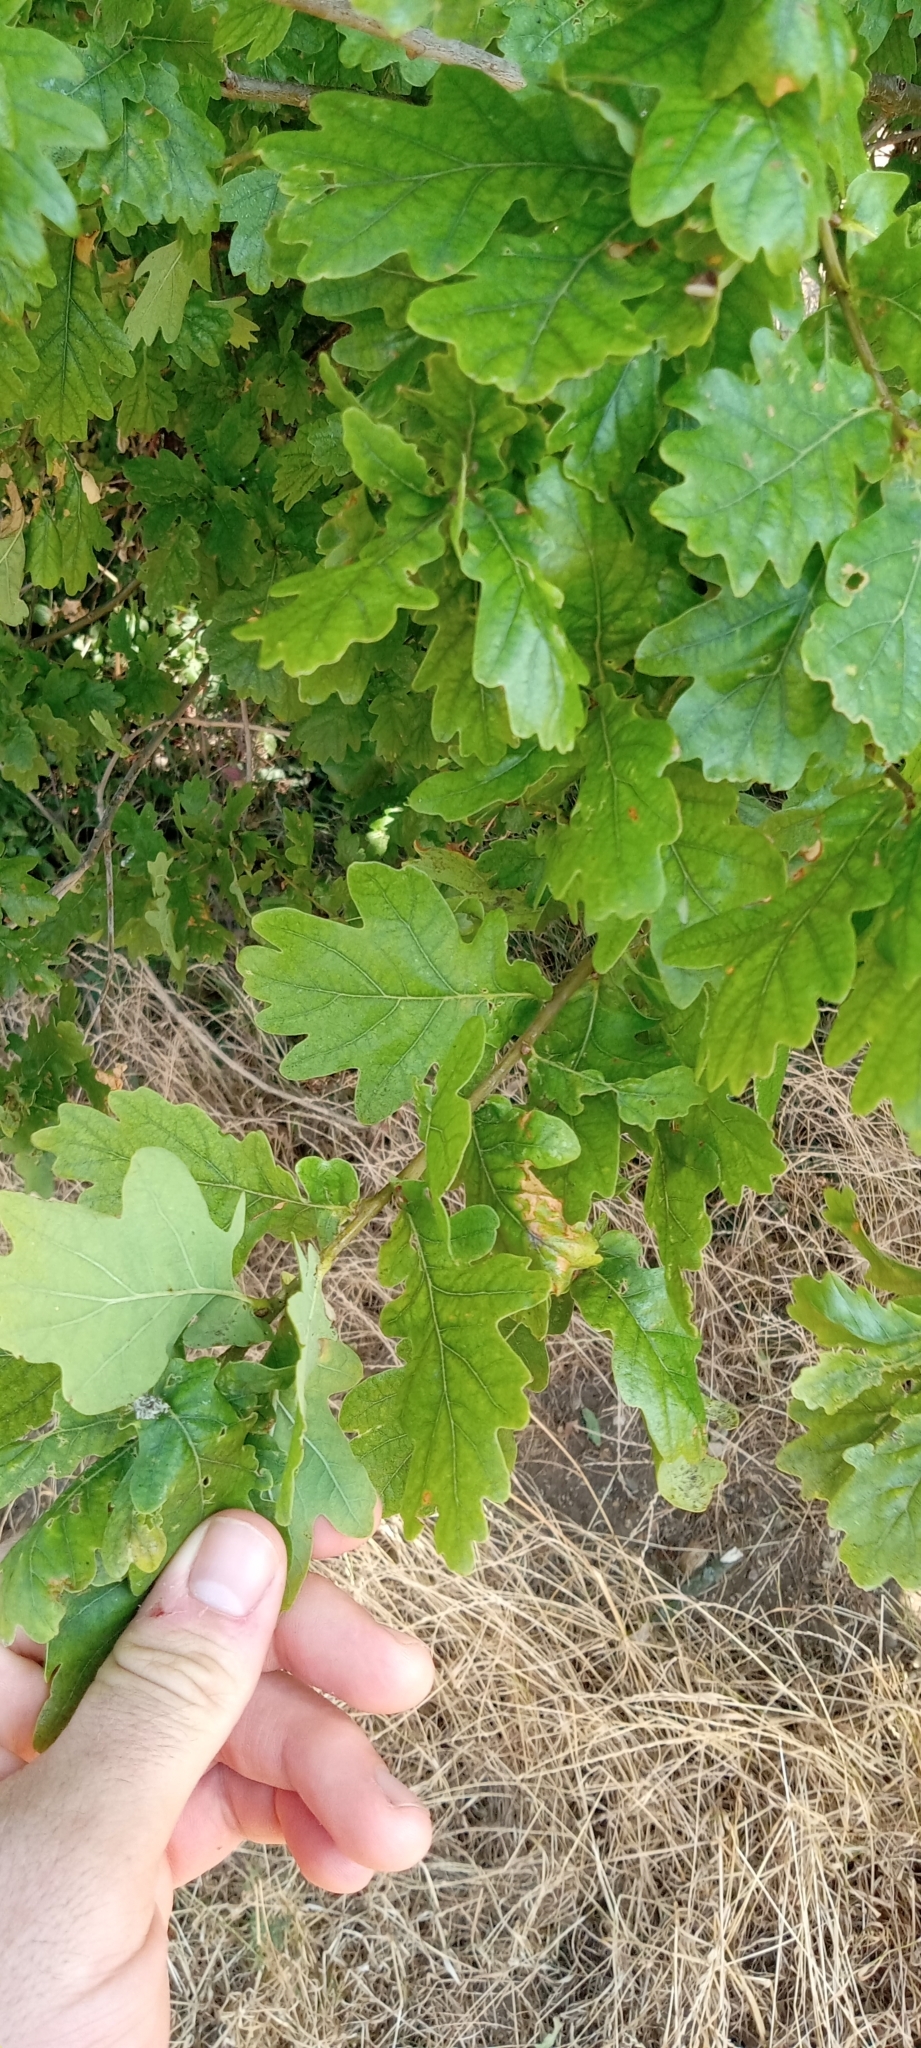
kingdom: Plantae
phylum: Tracheophyta
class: Magnoliopsida
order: Fagales
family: Fagaceae
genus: Quercus
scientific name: Quercus robur
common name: Pedunculate oak
